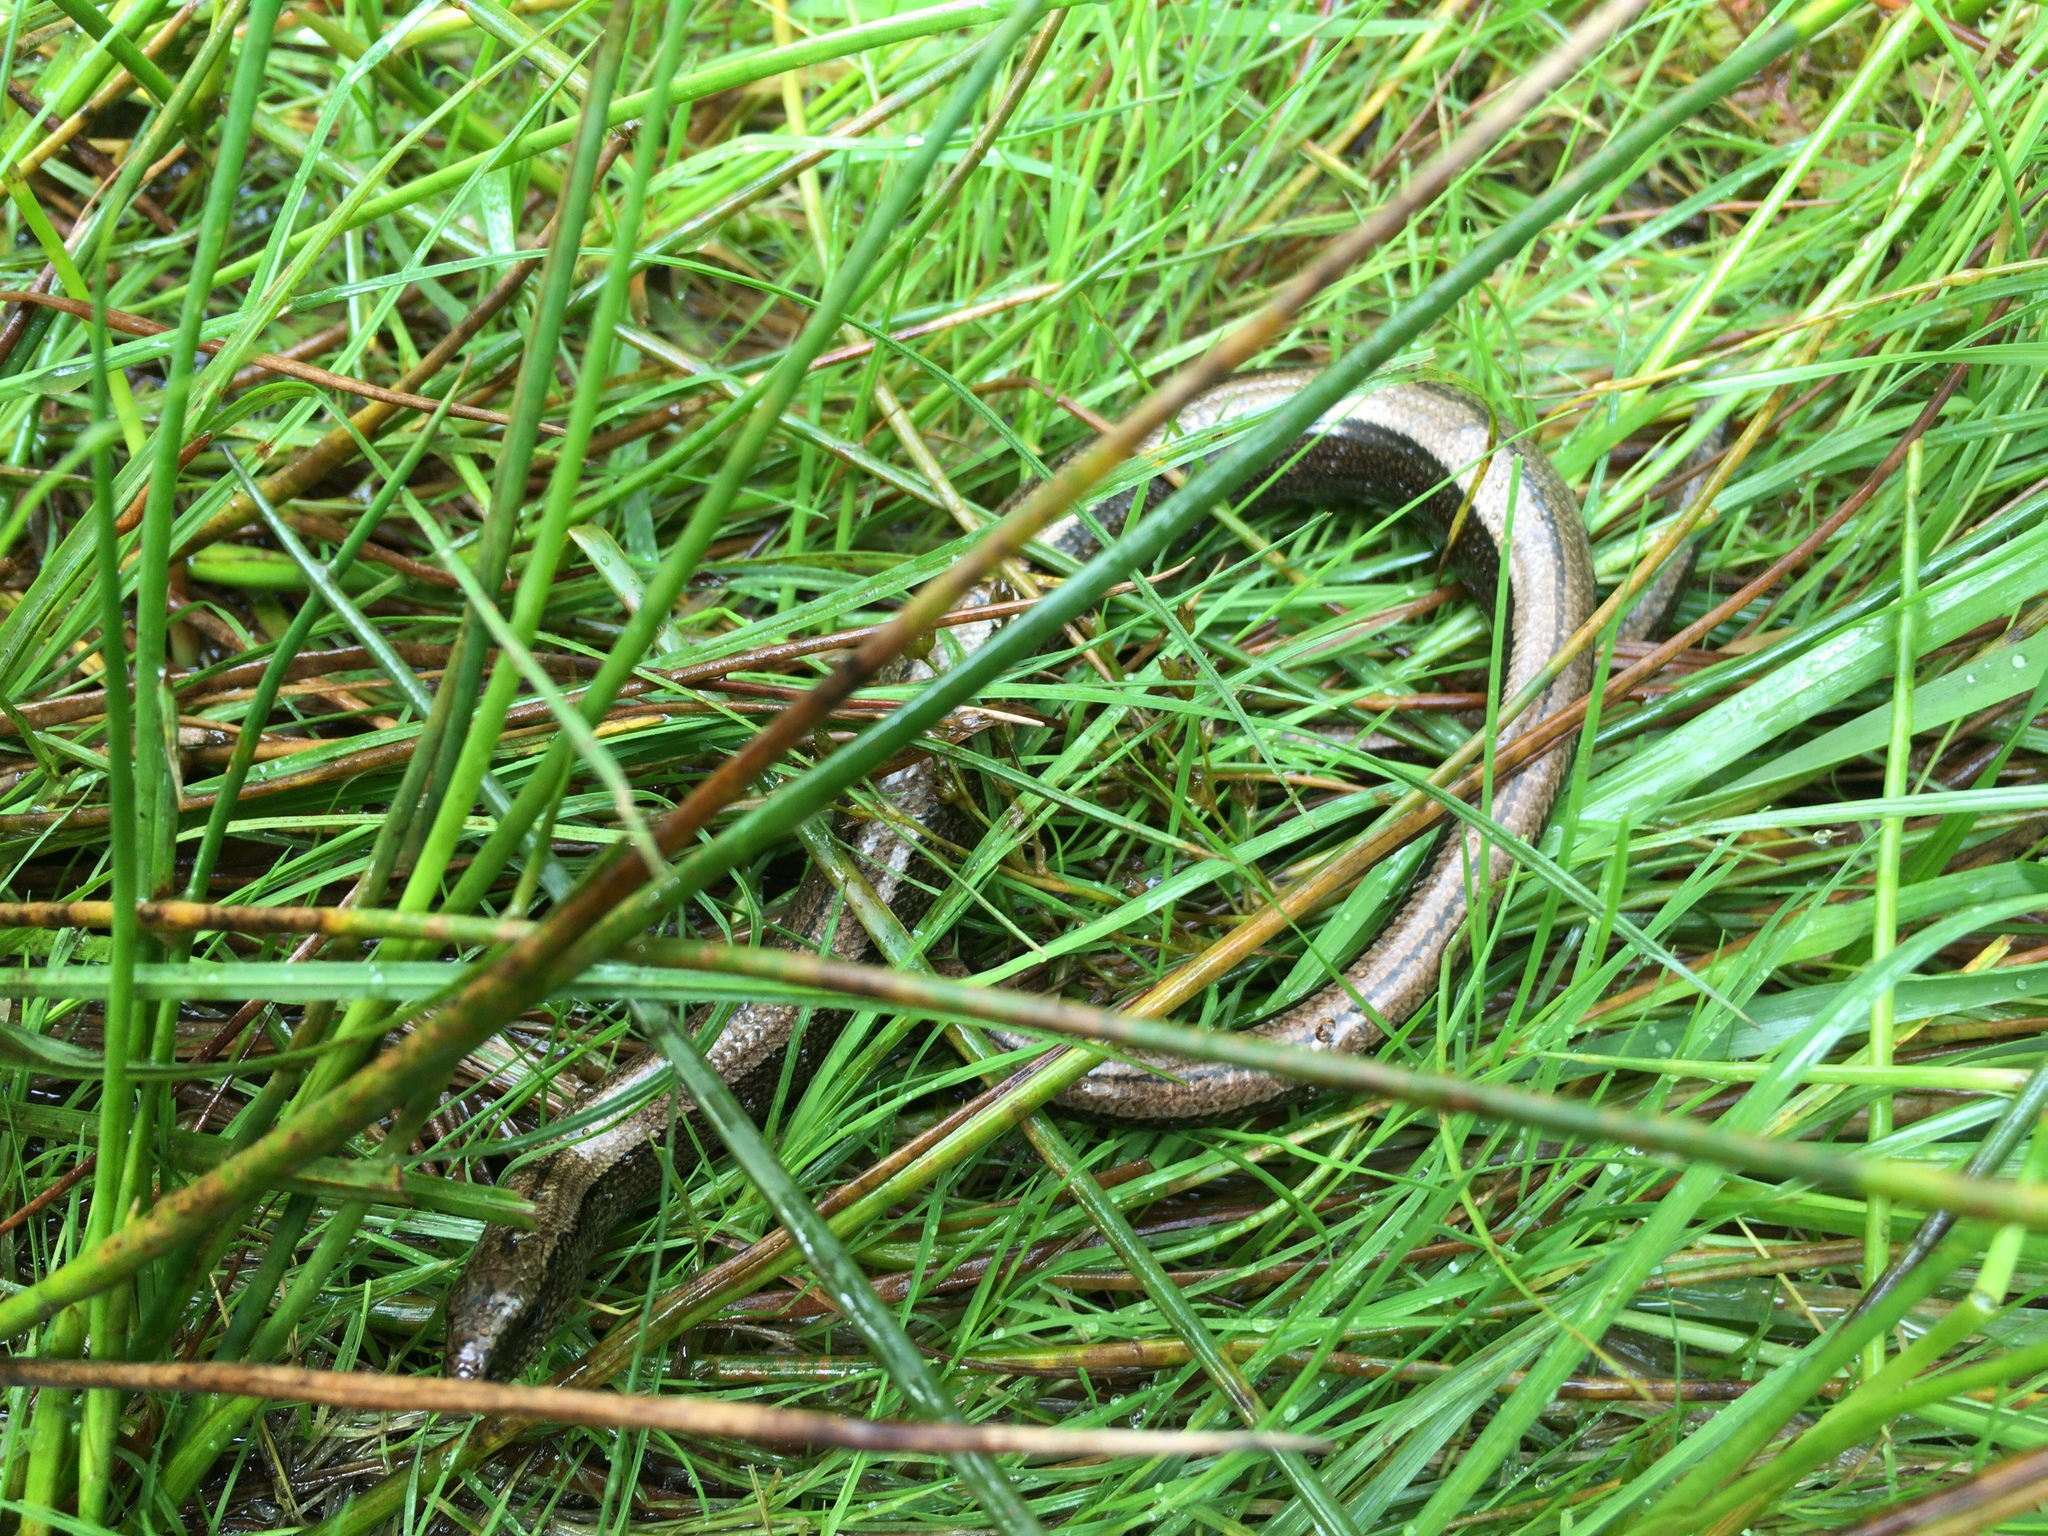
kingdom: Animalia
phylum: Chordata
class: Squamata
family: Anguidae
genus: Anguis
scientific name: Anguis fragilis
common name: Slow worm
